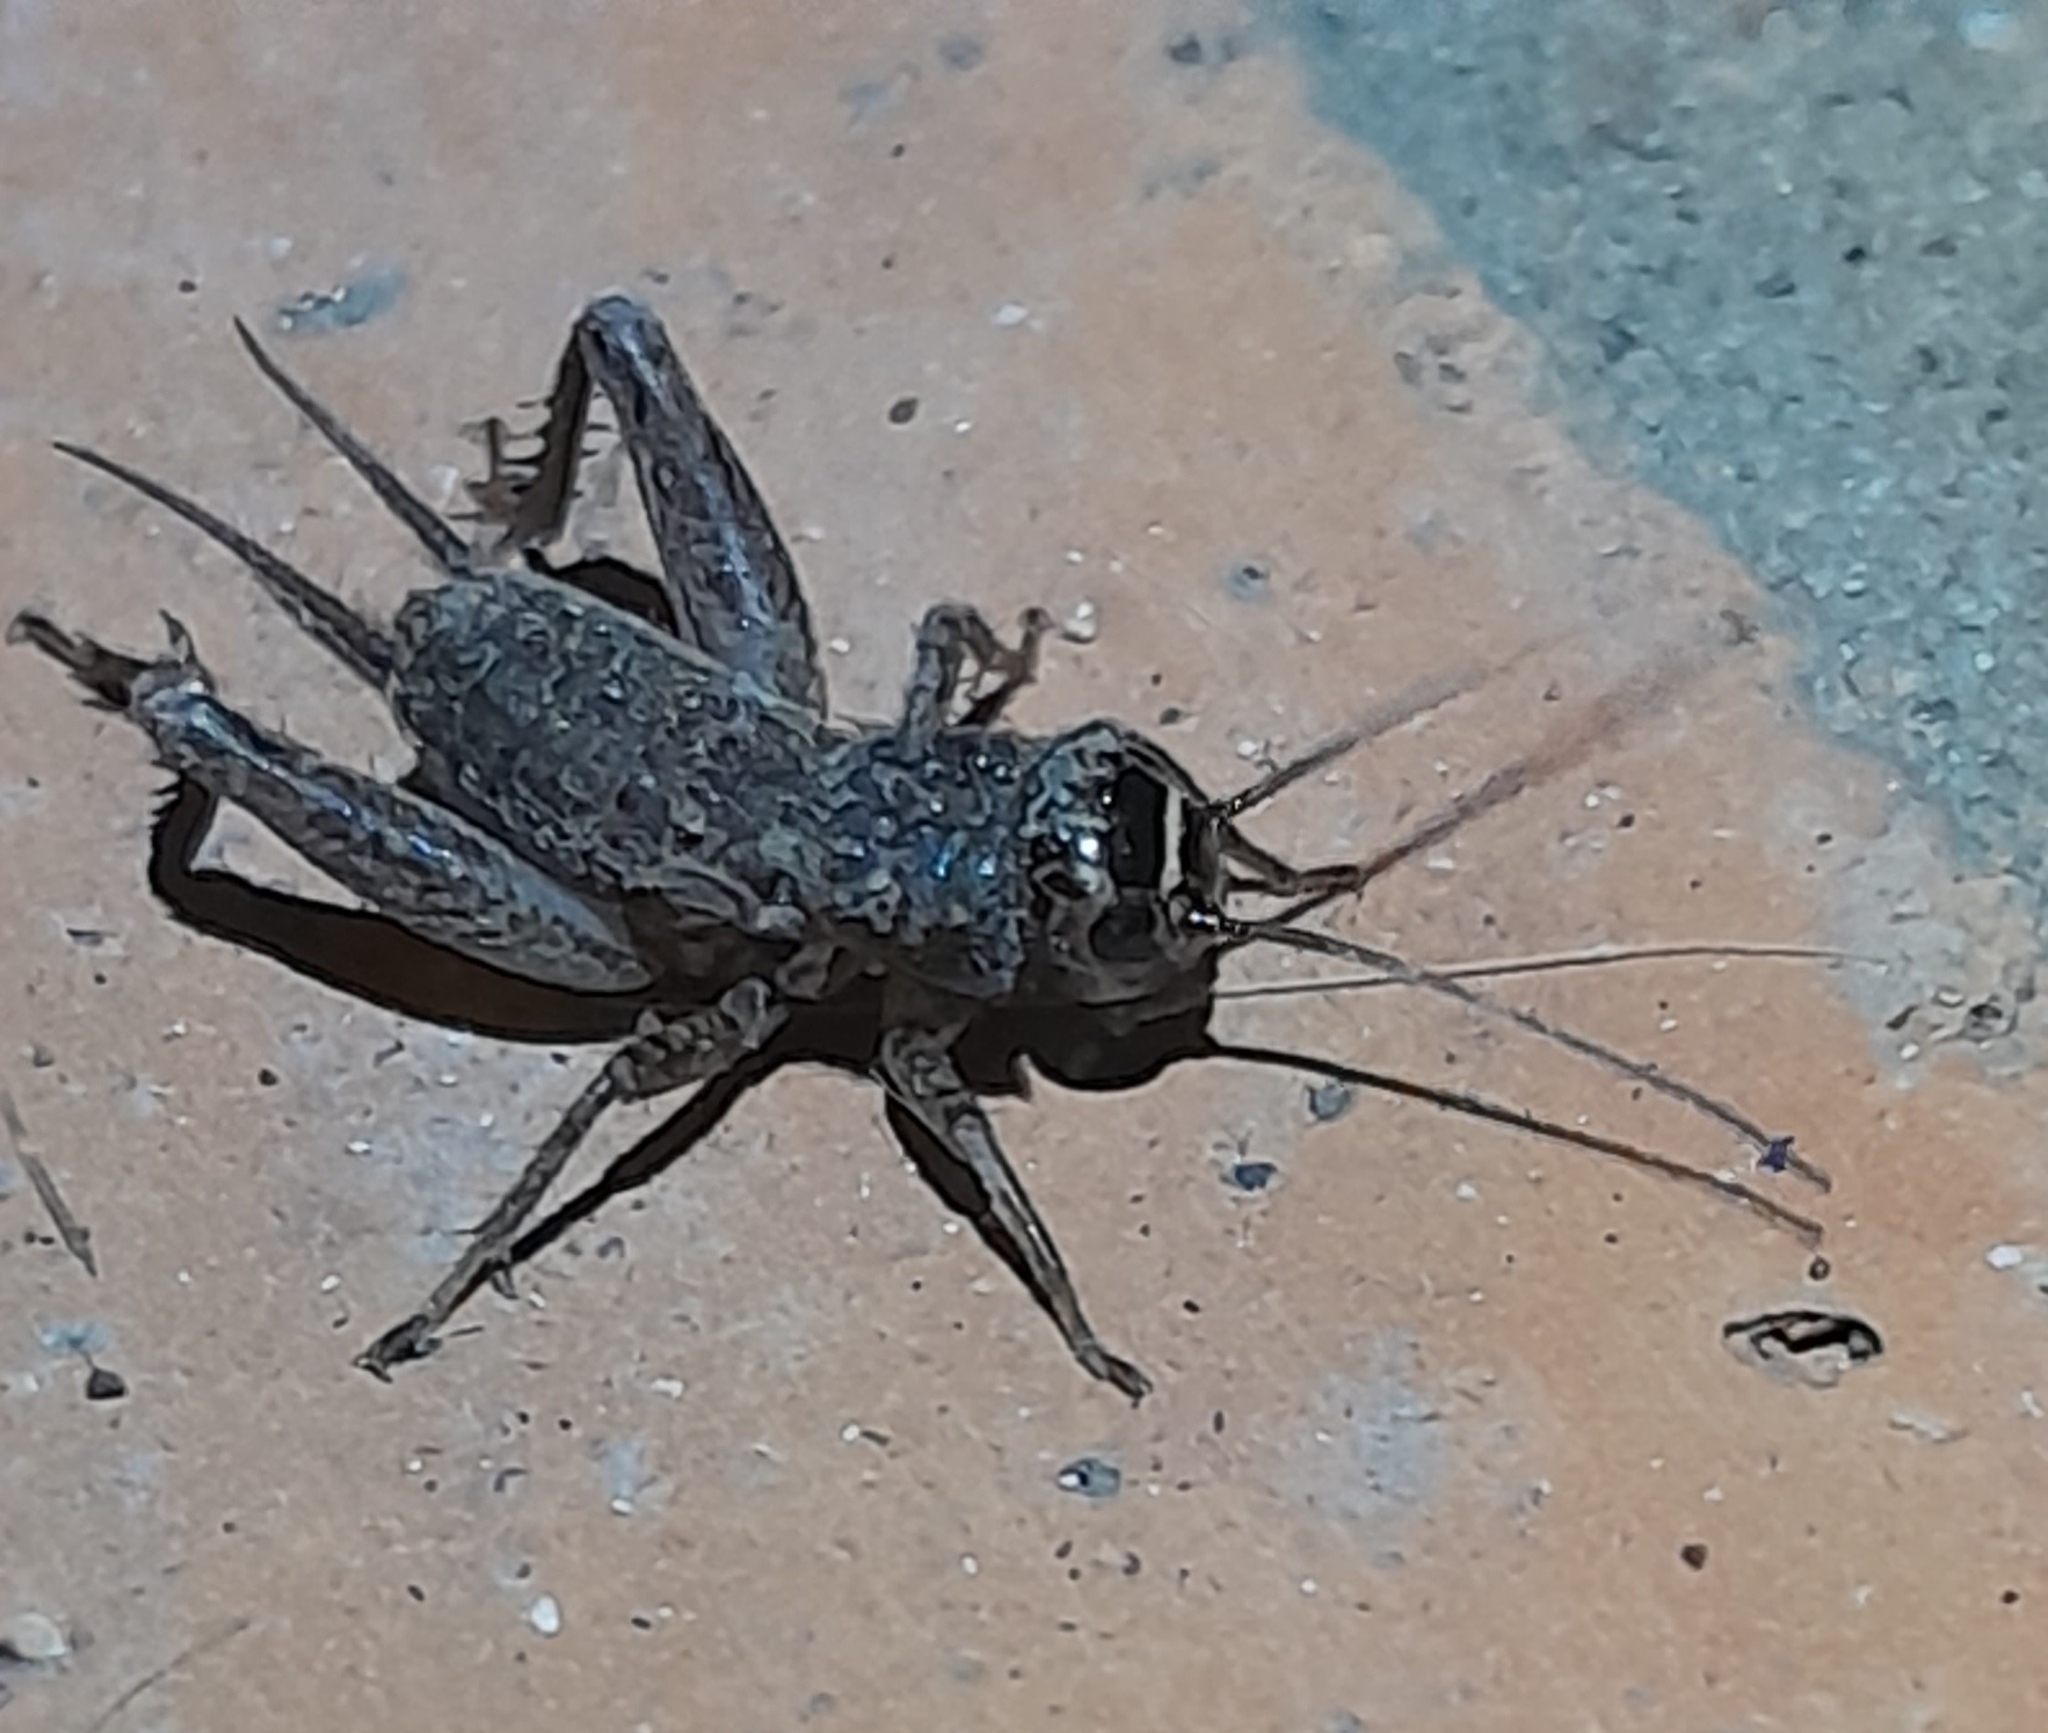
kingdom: Animalia
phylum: Arthropoda
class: Insecta
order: Orthoptera
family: Gryllidae
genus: Eumodicogryllus
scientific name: Eumodicogryllus bordigalensis
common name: Bordeaux cricket
